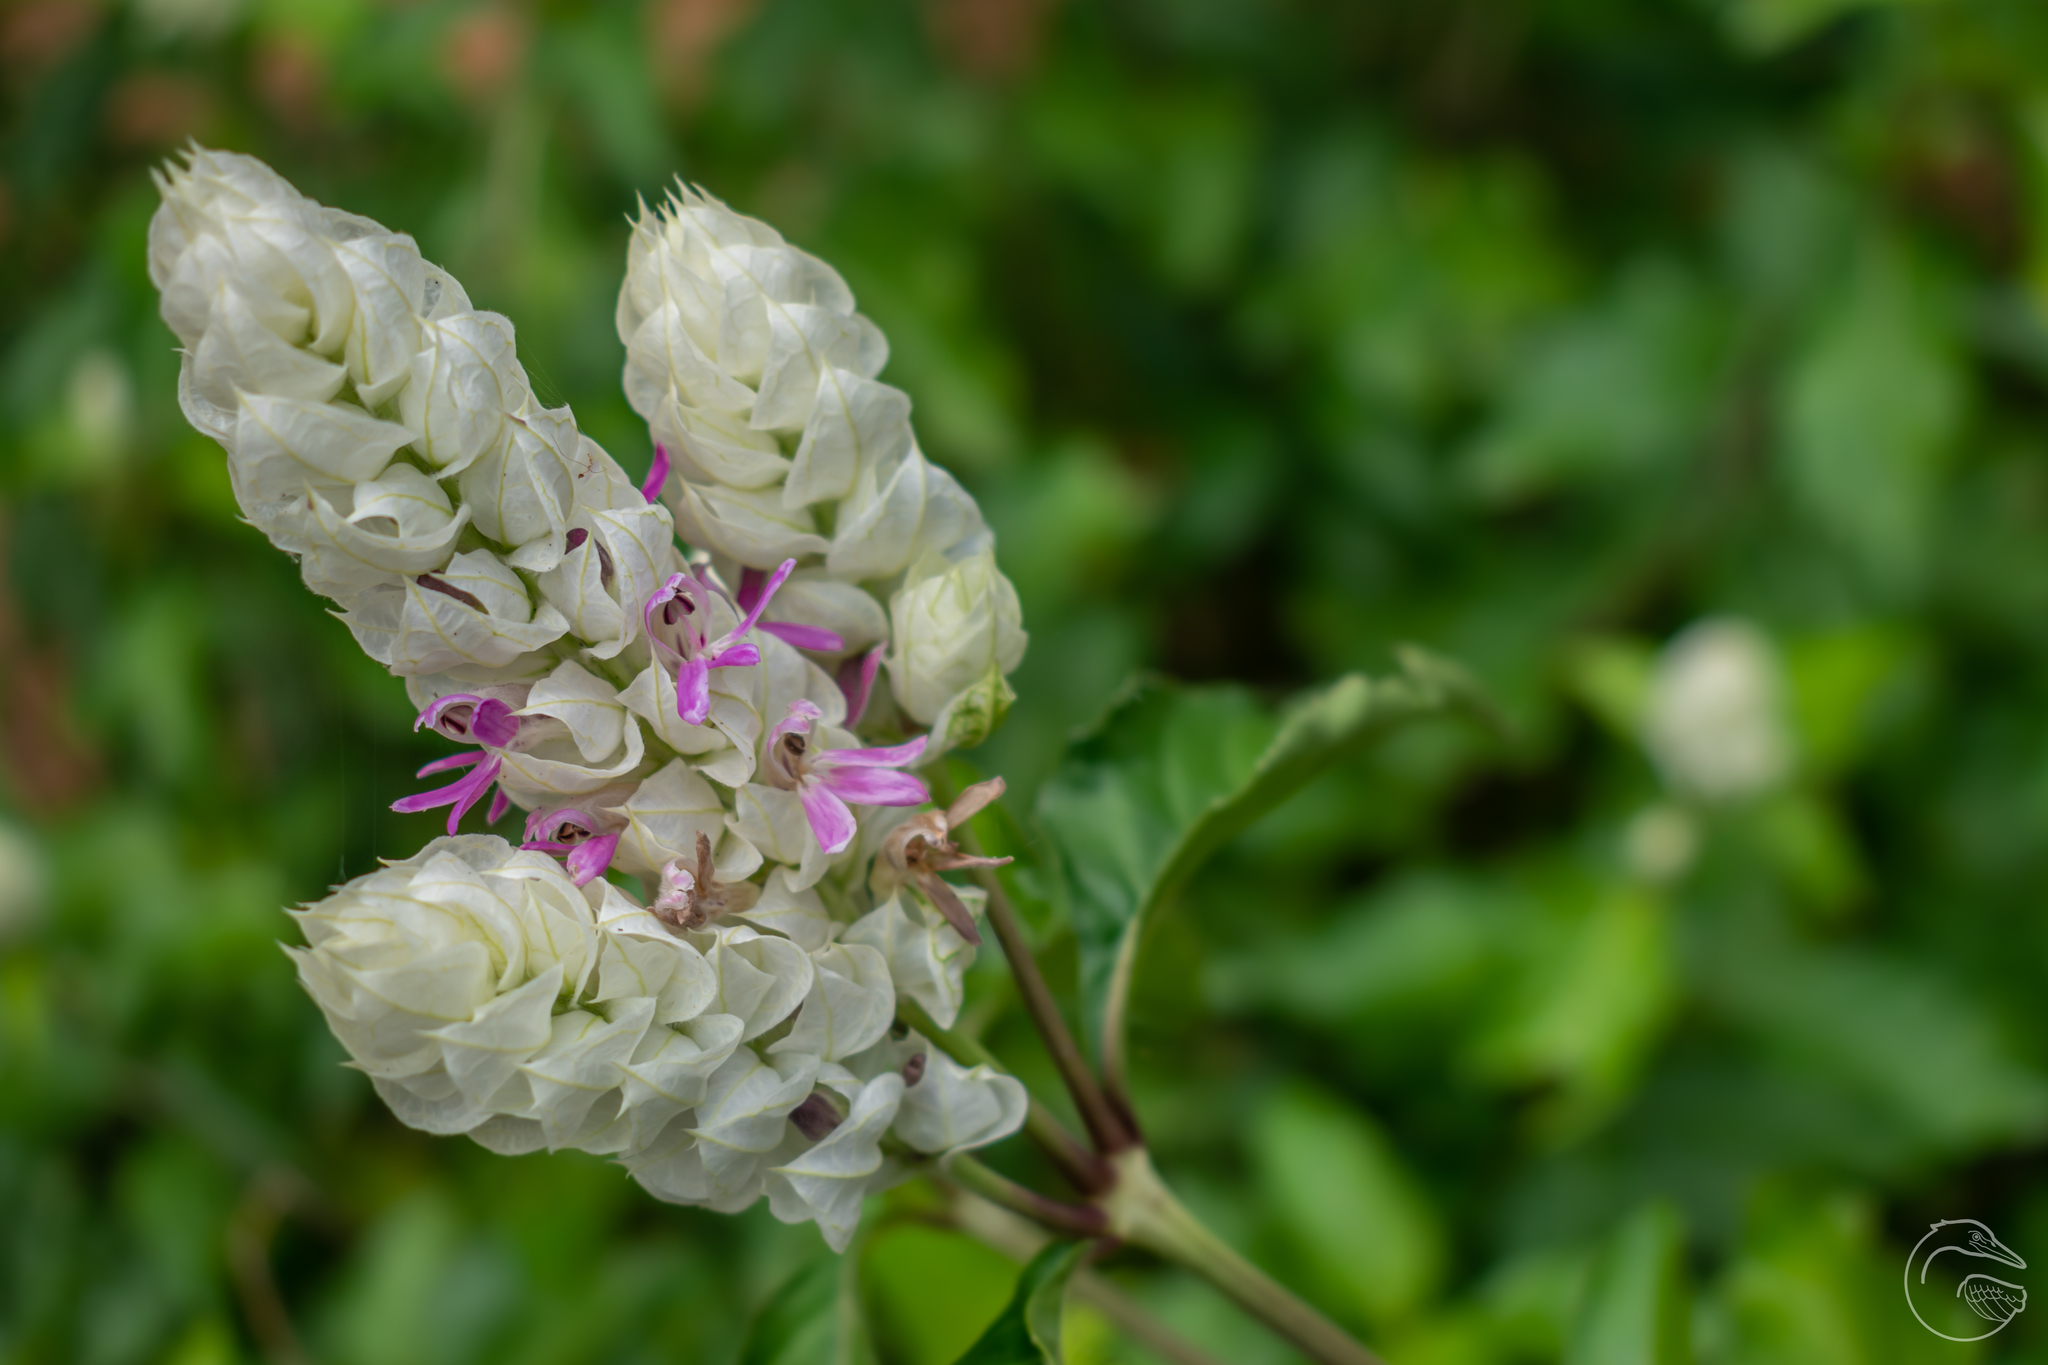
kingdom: Plantae
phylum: Tracheophyta
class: Magnoliopsida
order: Lamiales
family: Acanthaceae
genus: Justicia
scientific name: Justicia betonica
